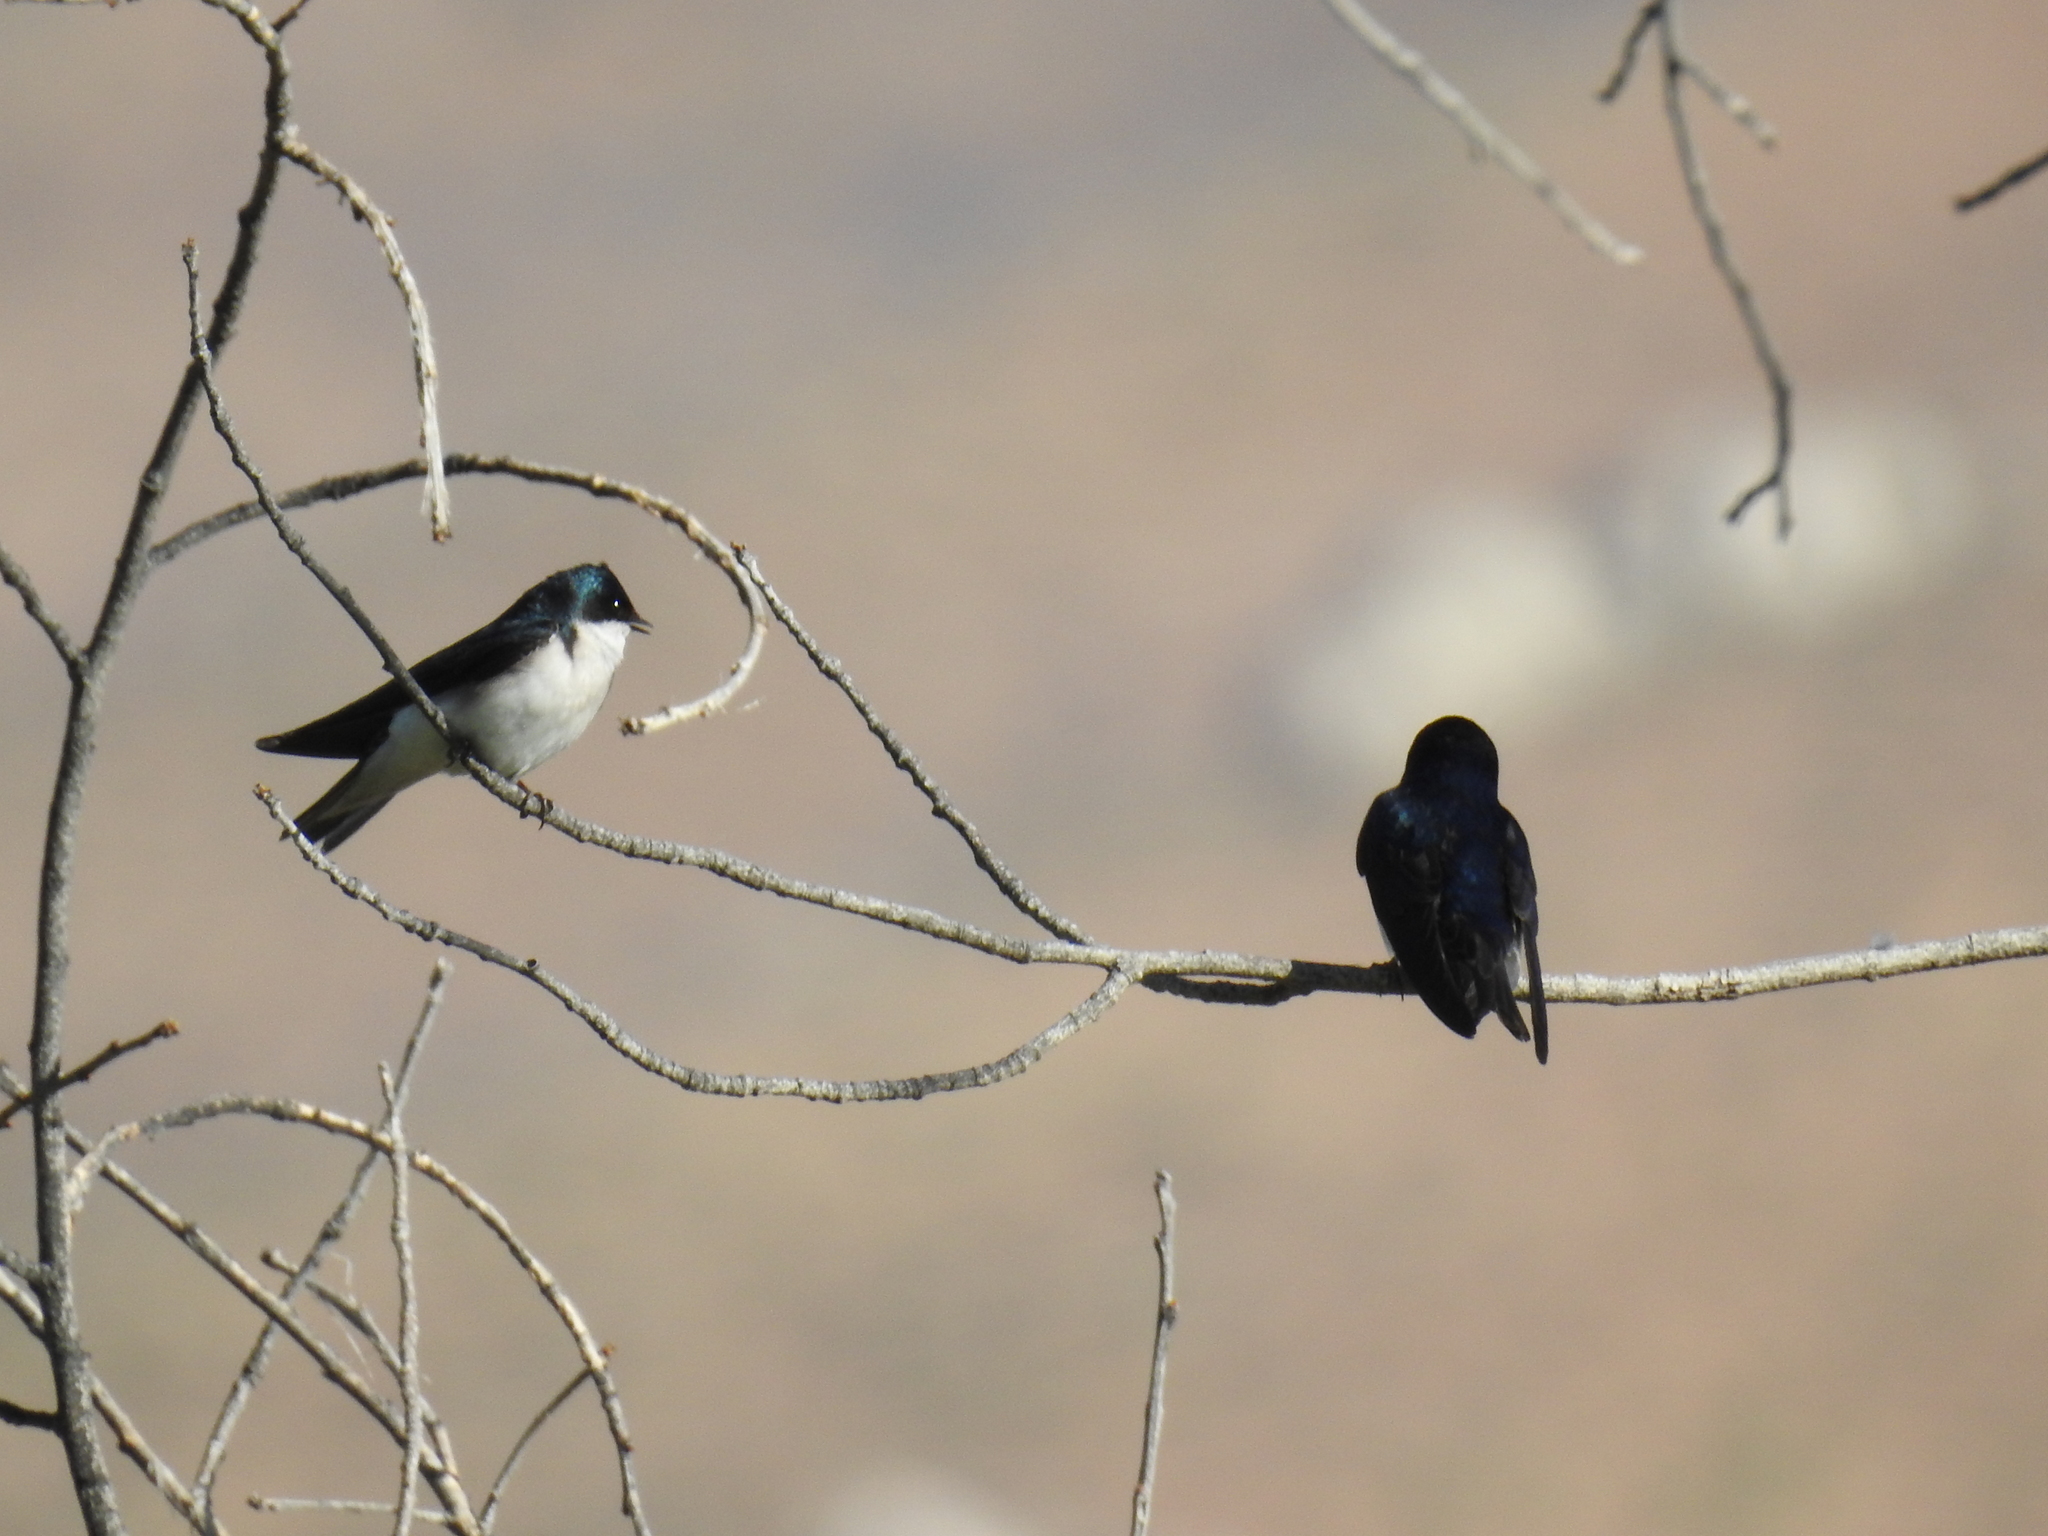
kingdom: Animalia
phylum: Chordata
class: Aves
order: Passeriformes
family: Hirundinidae
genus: Tachycineta
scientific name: Tachycineta bicolor
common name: Tree swallow
